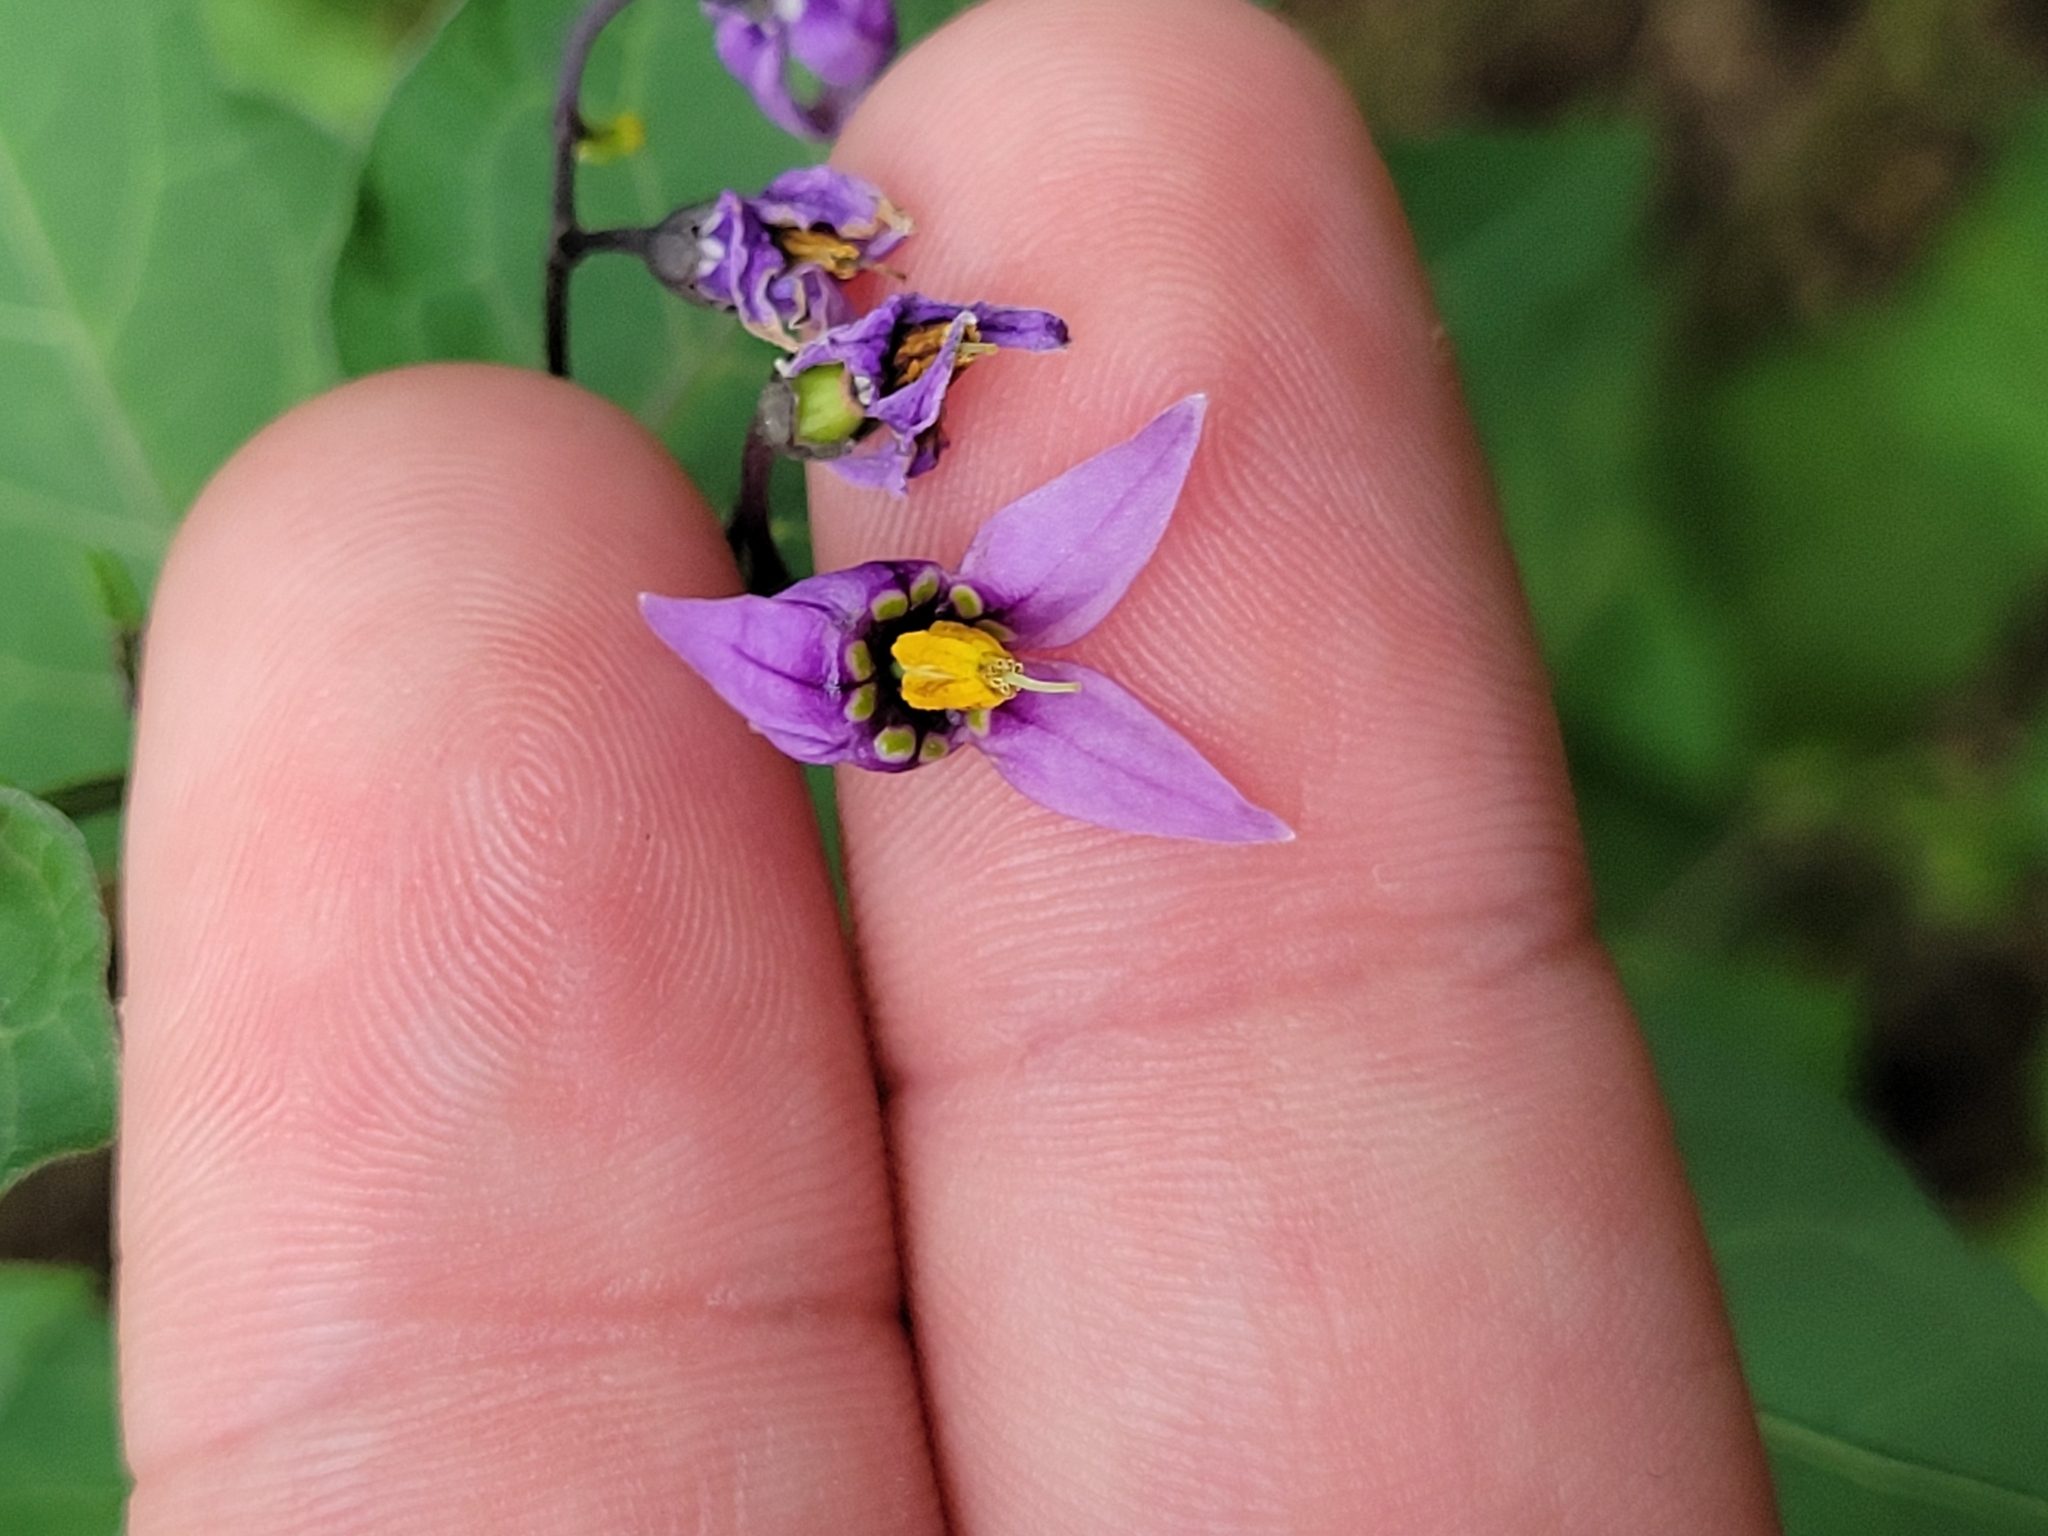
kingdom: Plantae
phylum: Tracheophyta
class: Magnoliopsida
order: Solanales
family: Solanaceae
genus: Solanum
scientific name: Solanum dulcamara
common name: Climbing nightshade
